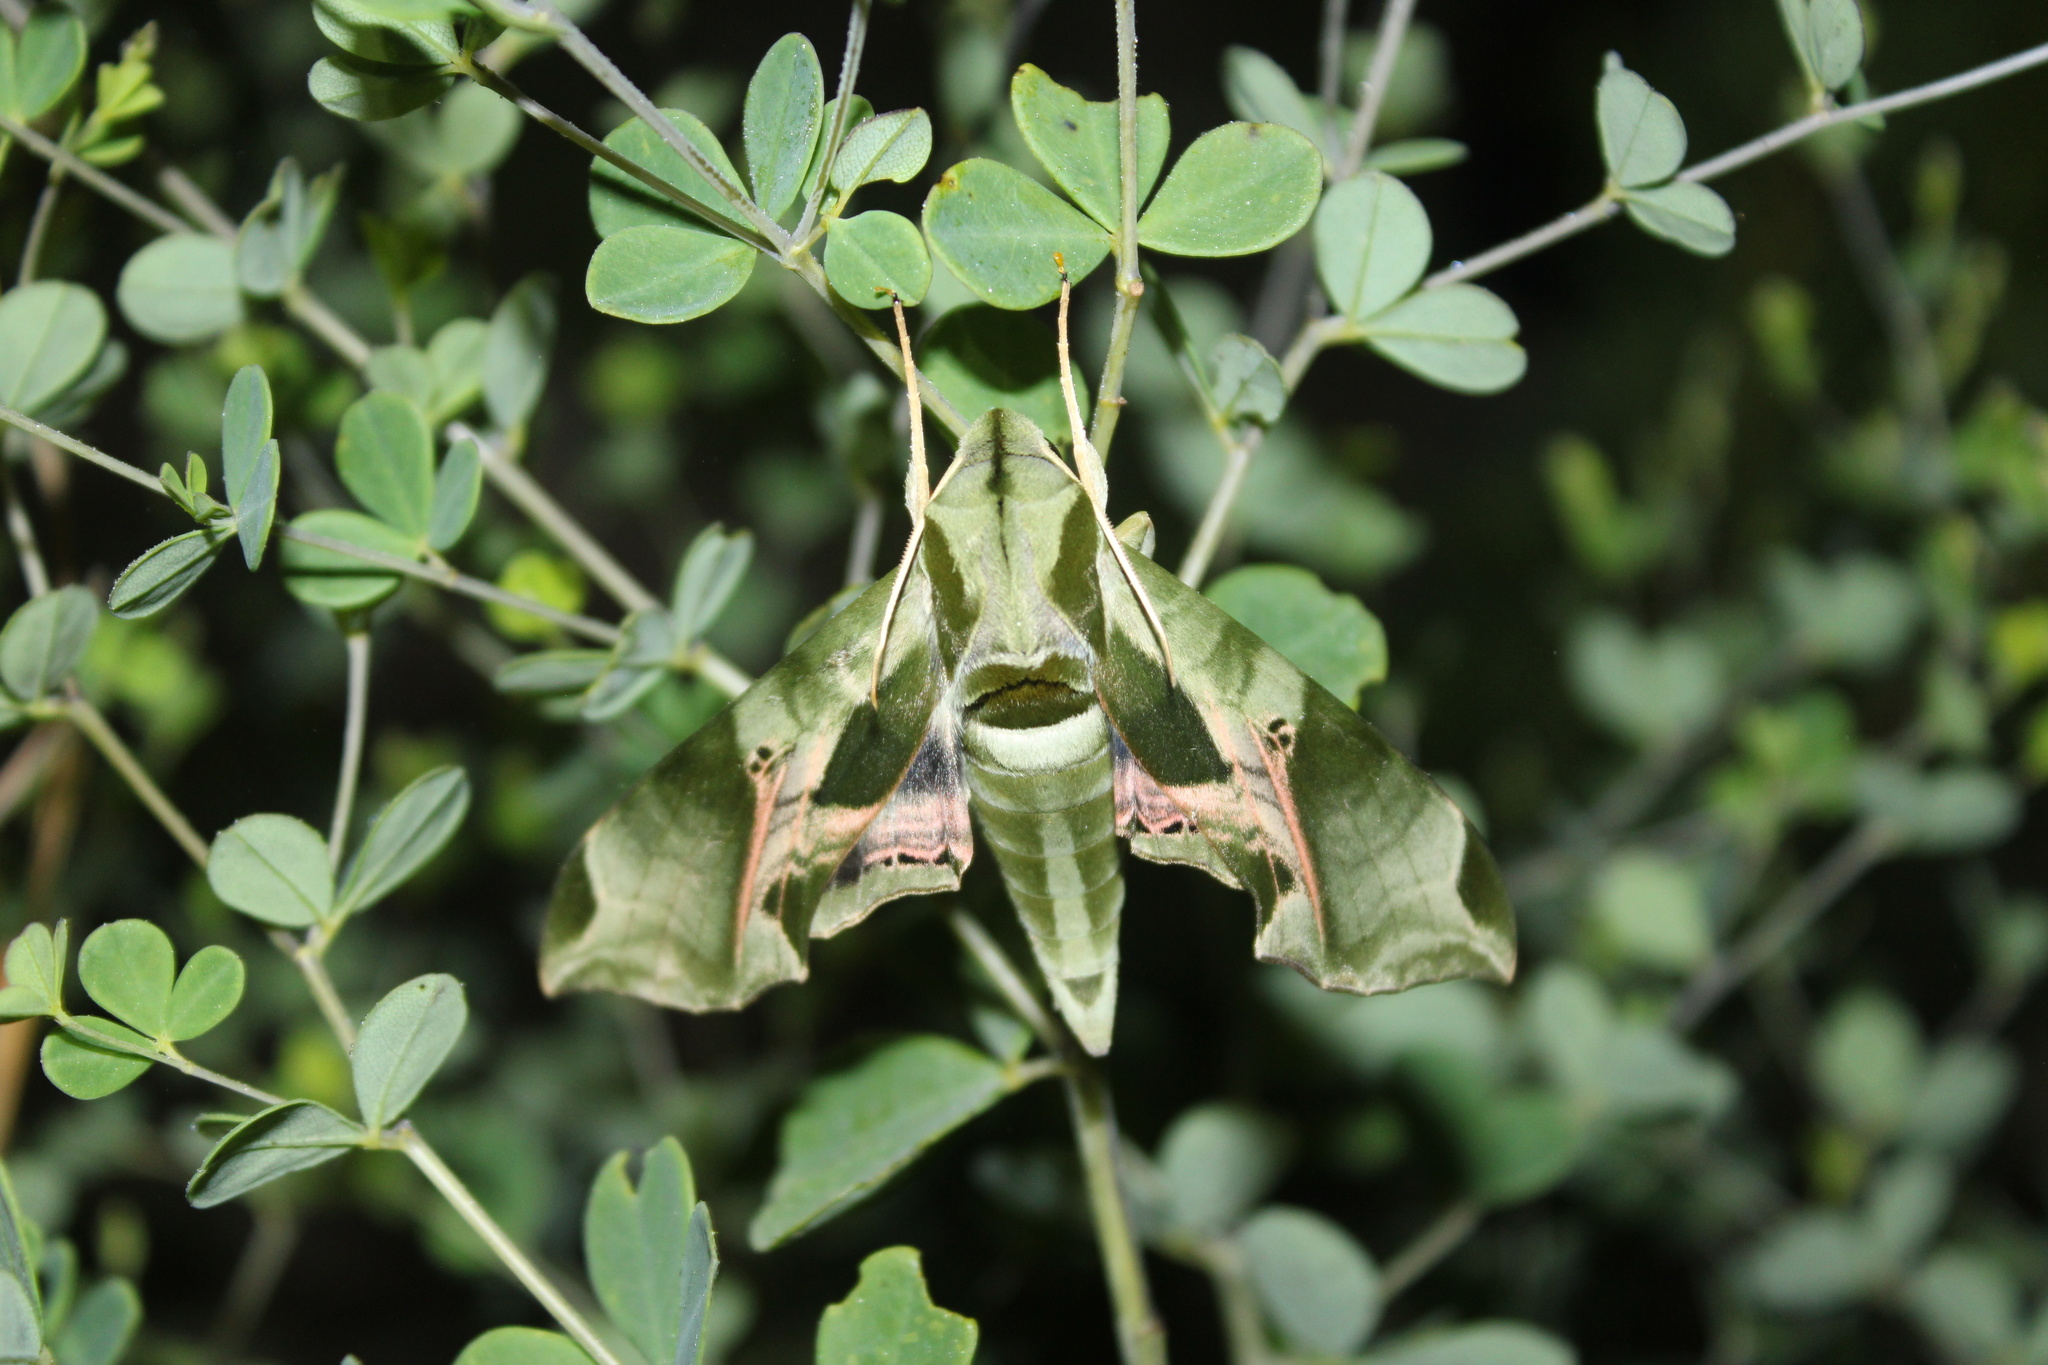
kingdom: Animalia
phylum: Arthropoda
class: Insecta
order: Lepidoptera
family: Sphingidae
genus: Eumorpha
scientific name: Eumorpha pandorus
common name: Pandora sphinx
